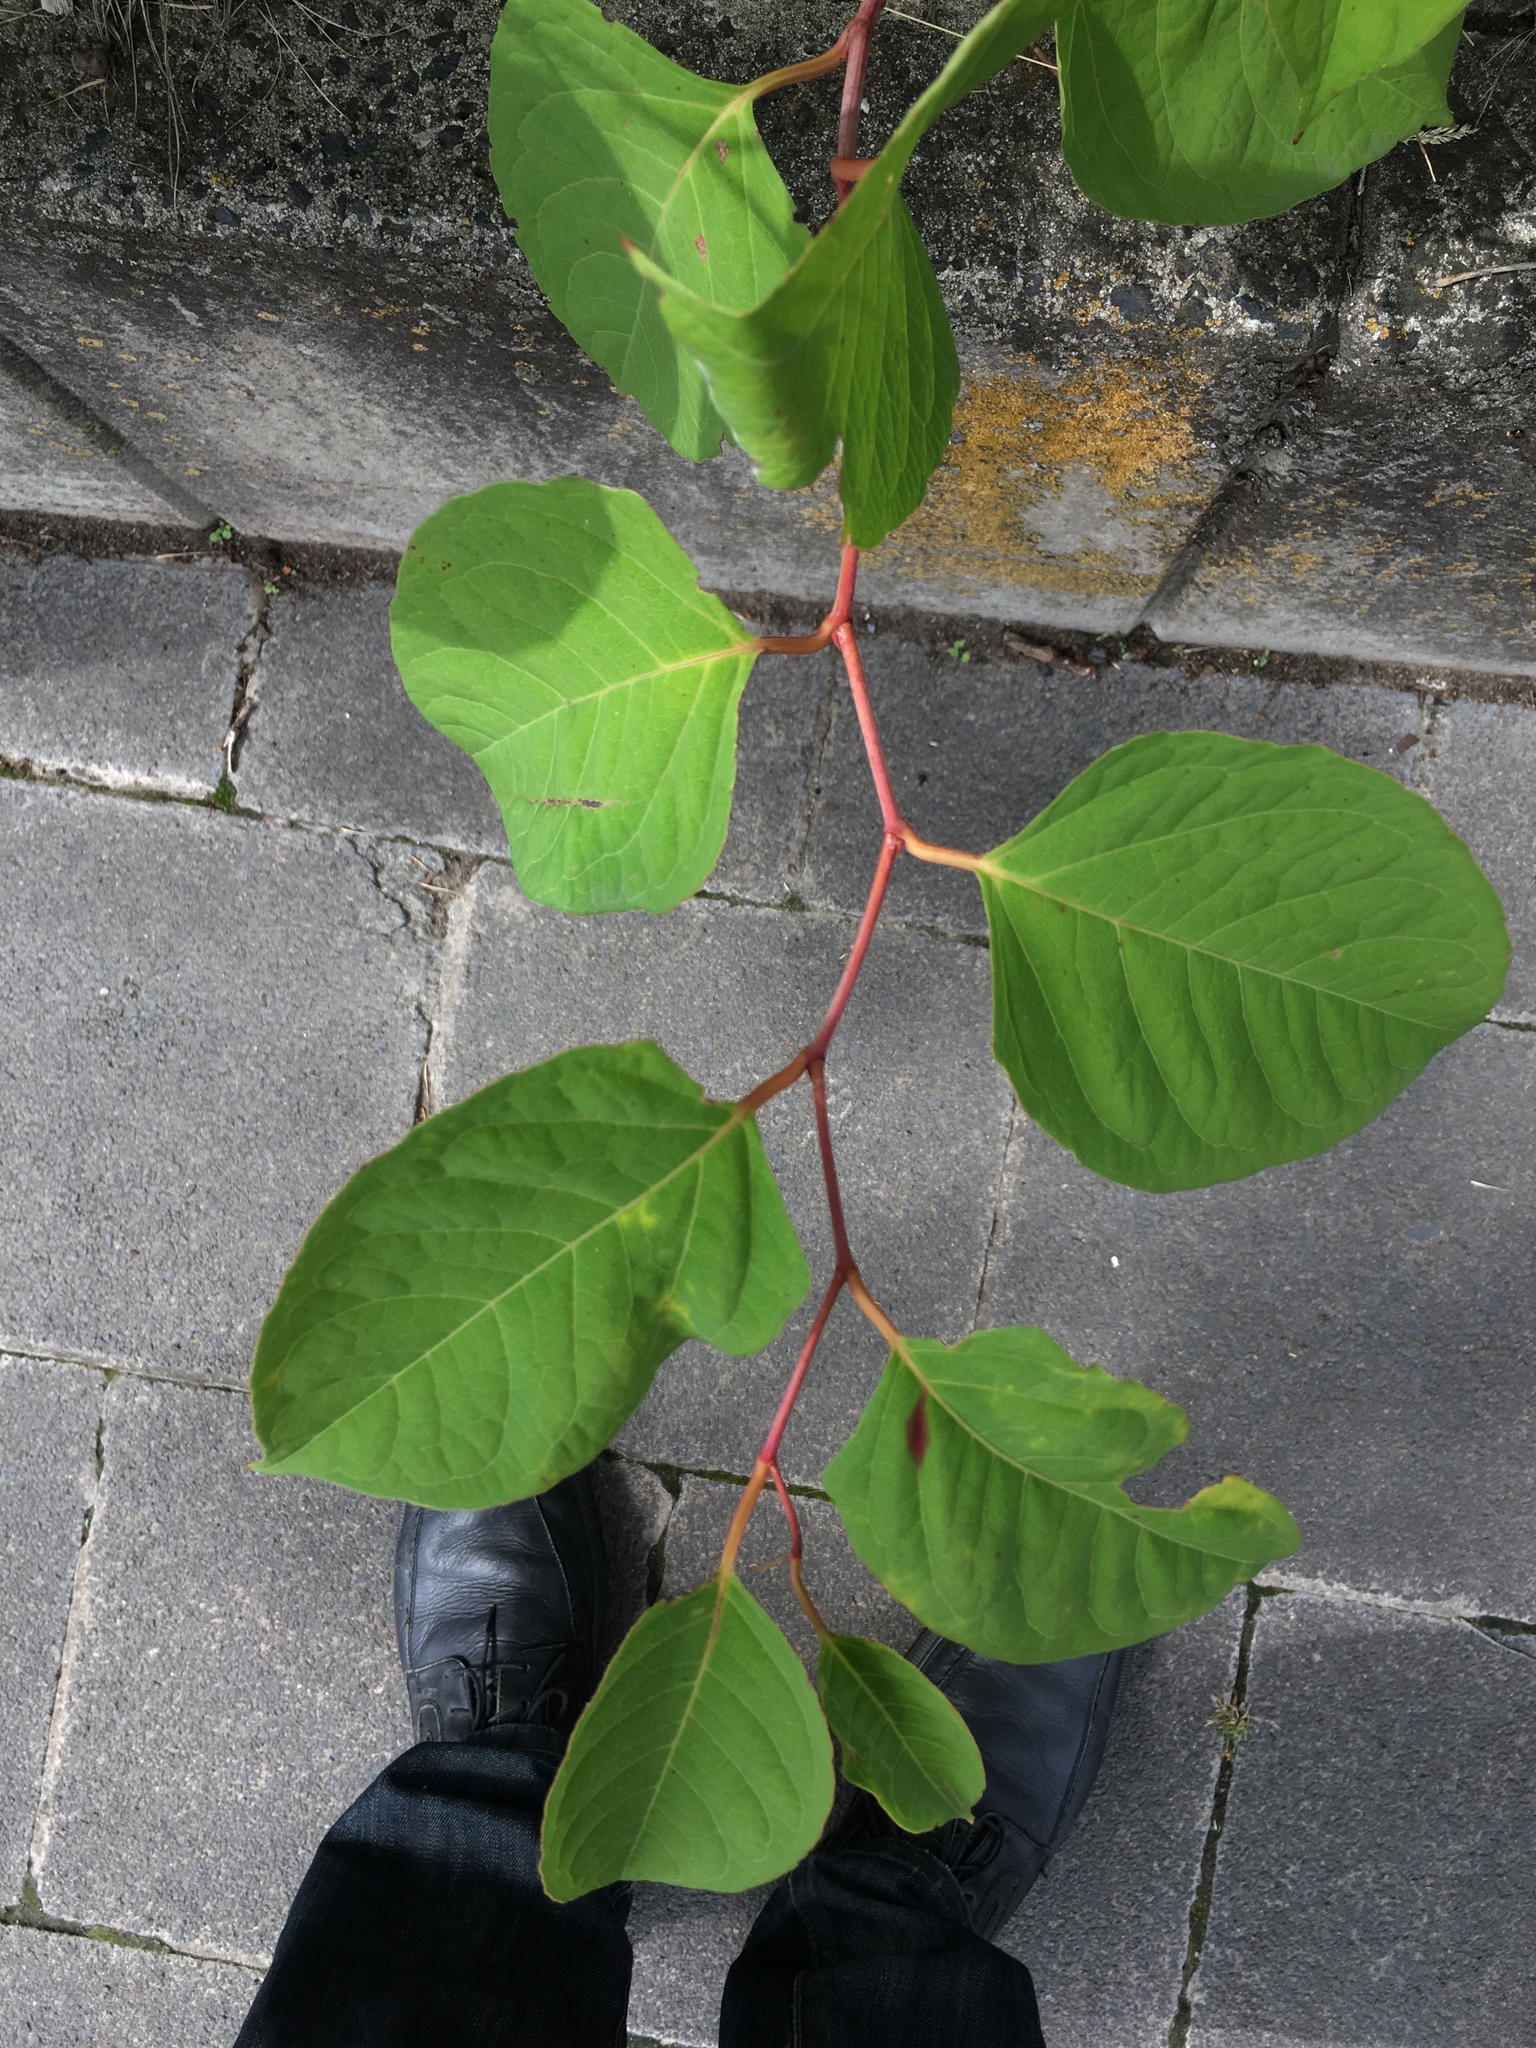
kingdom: Plantae
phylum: Tracheophyta
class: Magnoliopsida
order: Caryophyllales
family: Polygonaceae
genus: Reynoutria
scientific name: Reynoutria japonica
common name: Japanese knotweed
